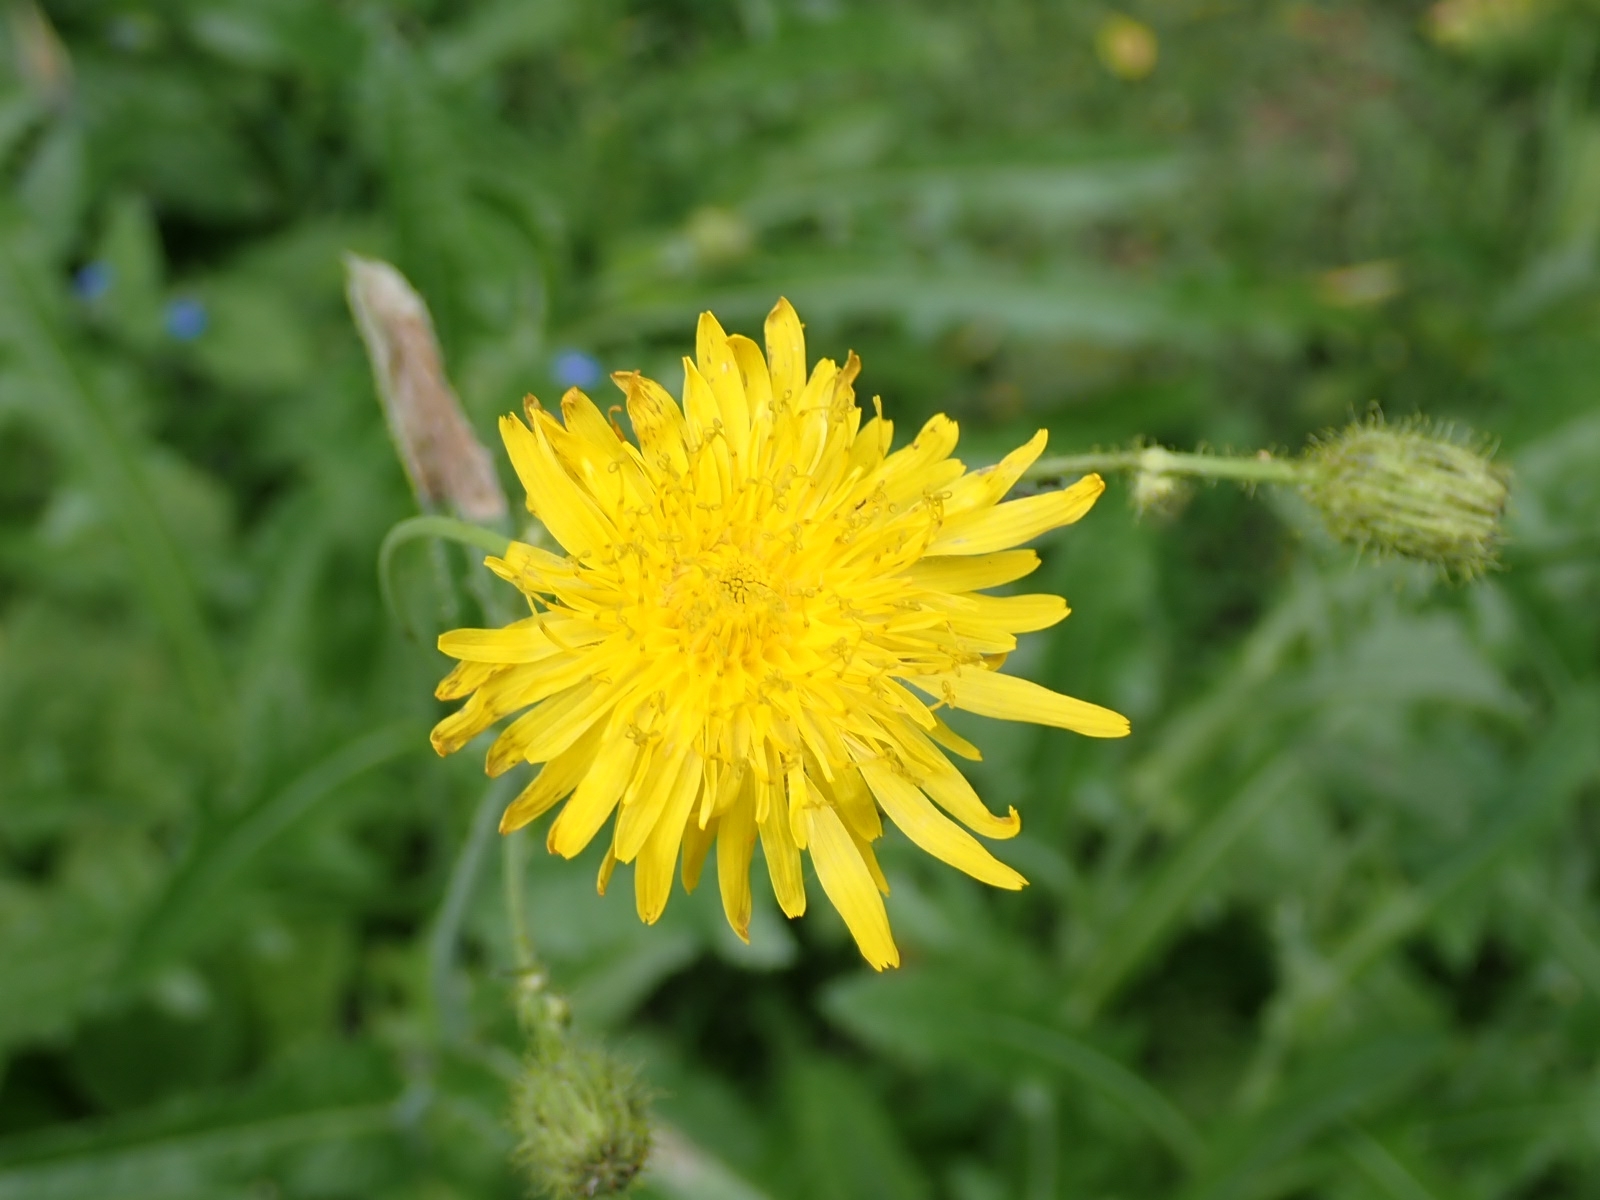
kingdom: Plantae
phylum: Tracheophyta
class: Magnoliopsida
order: Asterales
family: Asteraceae
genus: Sonchus
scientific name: Sonchus arvensis
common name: Perennial sow-thistle
